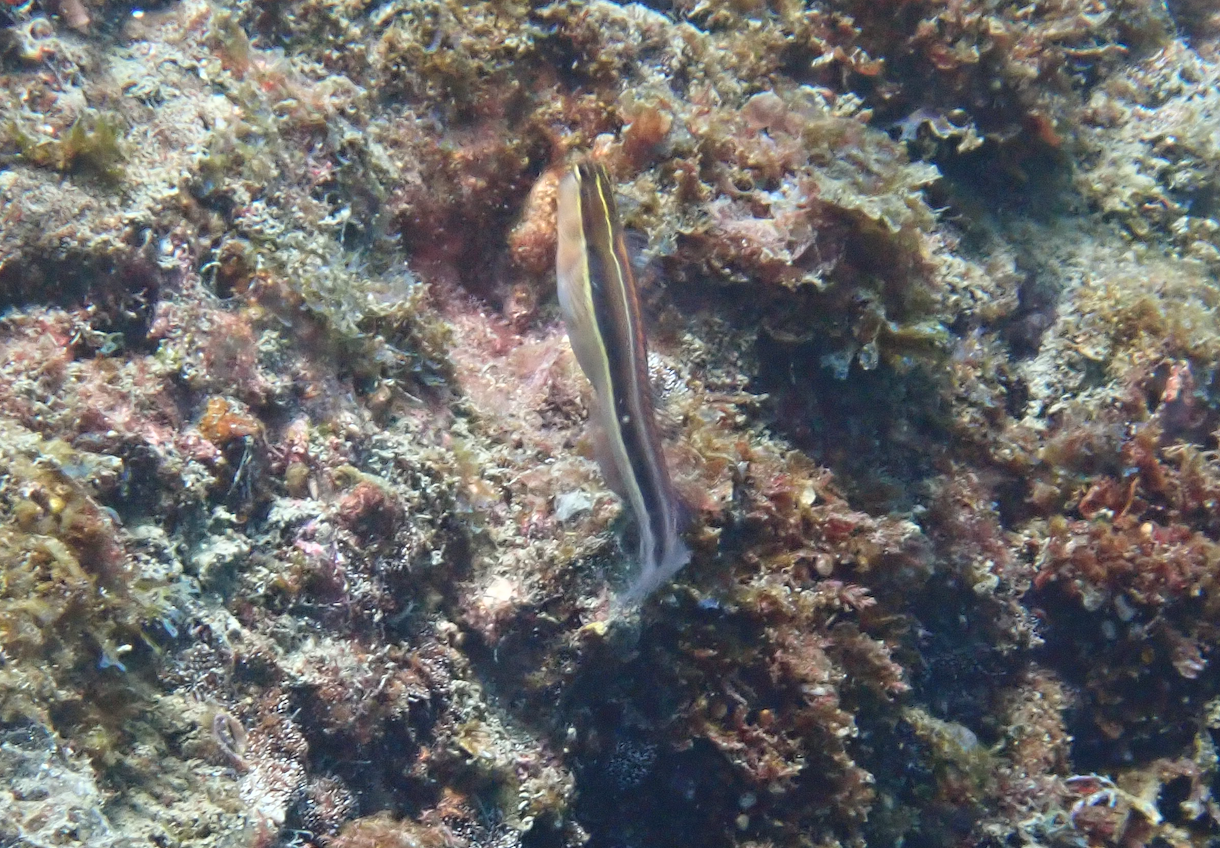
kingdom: Animalia
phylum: Chordata
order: Perciformes
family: Blenniidae
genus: Ecsenius
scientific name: Ecsenius lineatus
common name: Linear blenny
